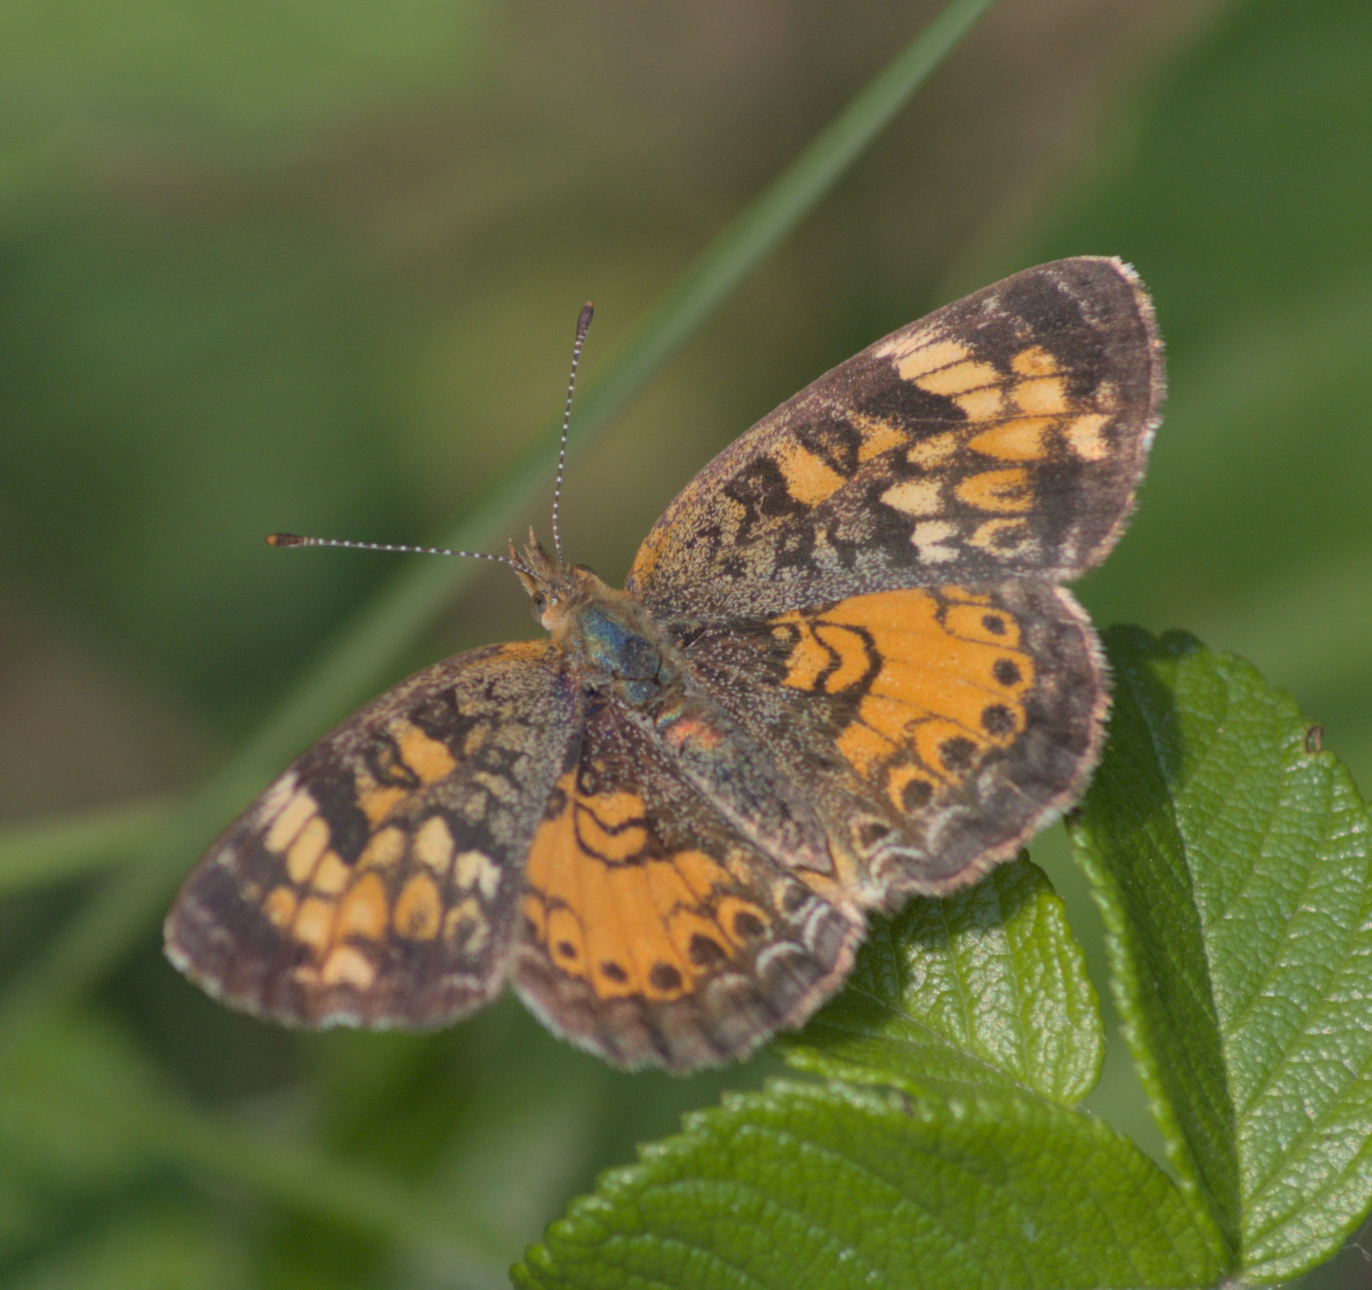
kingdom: Animalia
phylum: Arthropoda
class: Insecta
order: Lepidoptera
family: Nymphalidae
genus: Phyciodes
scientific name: Phyciodes tharos
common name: Pearl crescent
